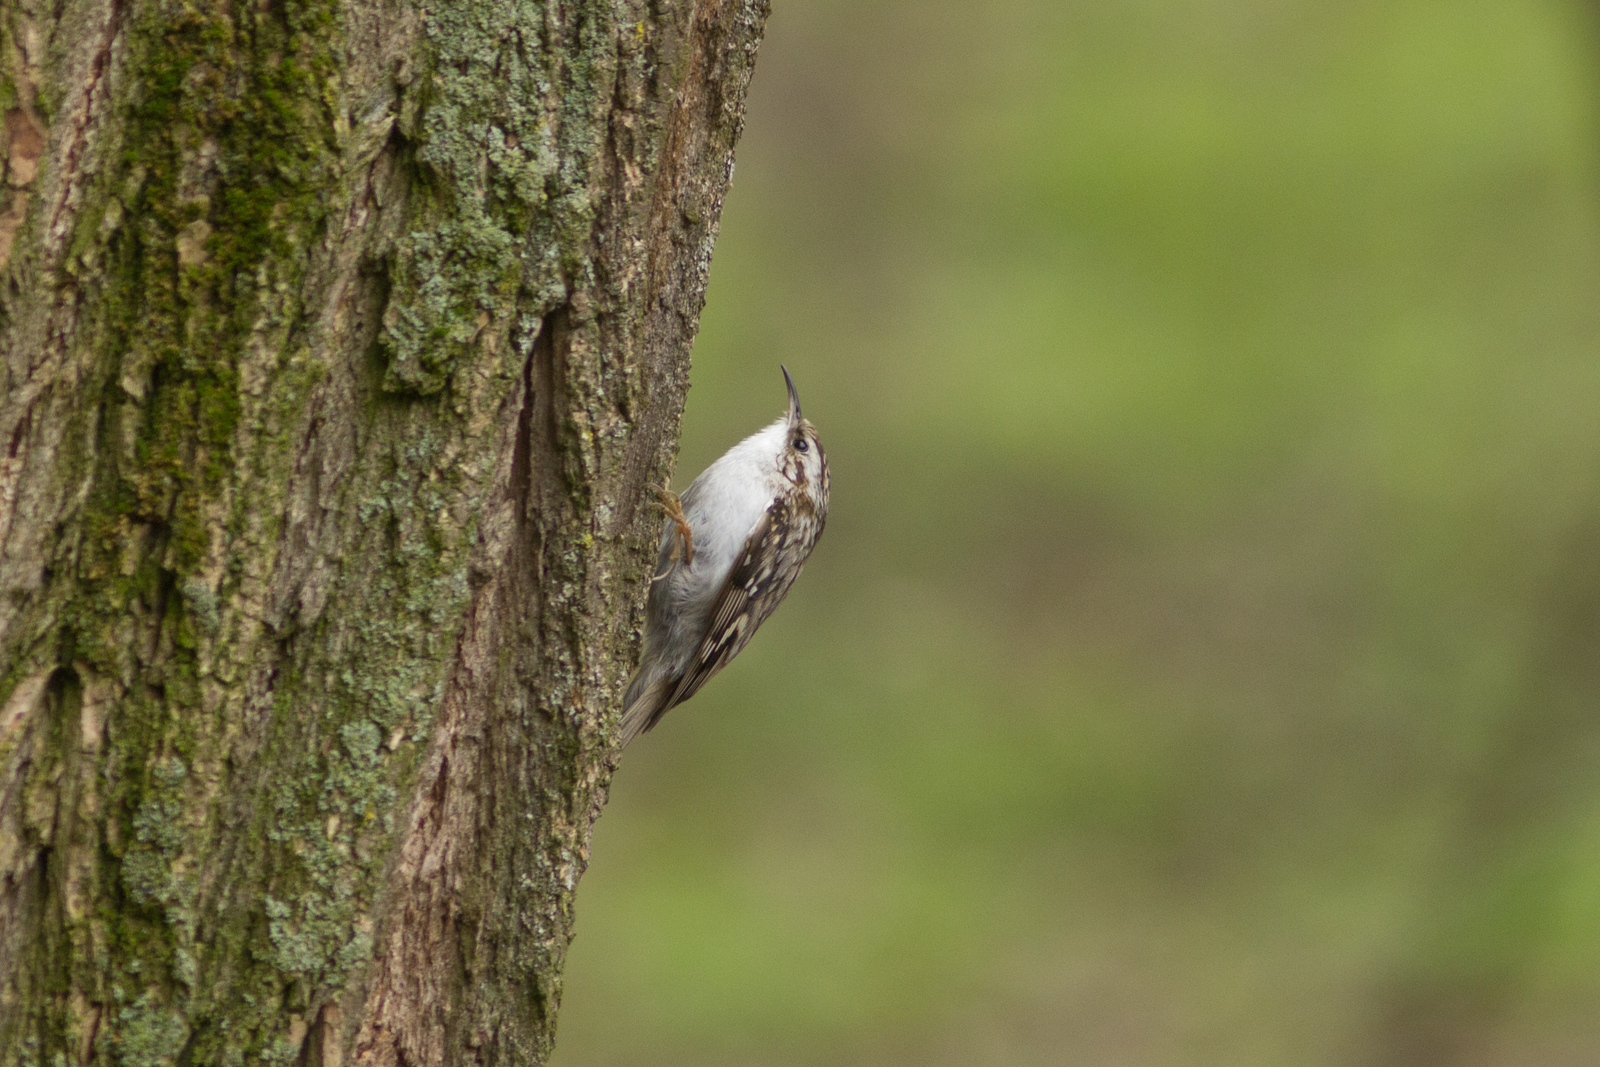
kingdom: Animalia
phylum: Chordata
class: Aves
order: Passeriformes
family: Certhiidae
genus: Certhia
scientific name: Certhia familiaris
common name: Eurasian treecreeper
